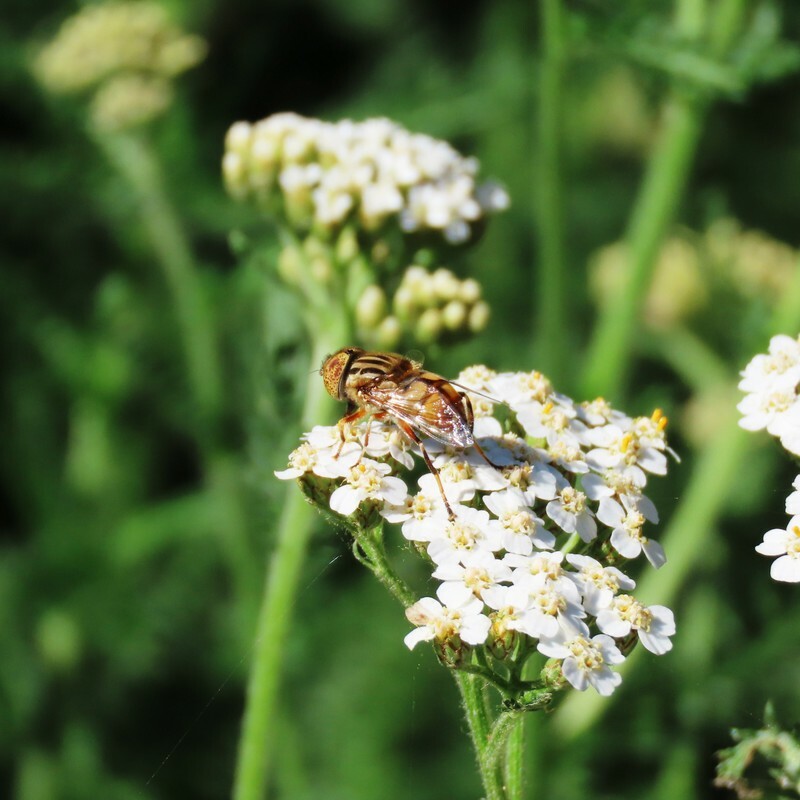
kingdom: Animalia
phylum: Arthropoda
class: Insecta
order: Diptera
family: Syrphidae
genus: Eristalinus
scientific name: Eristalinus punctulatus
